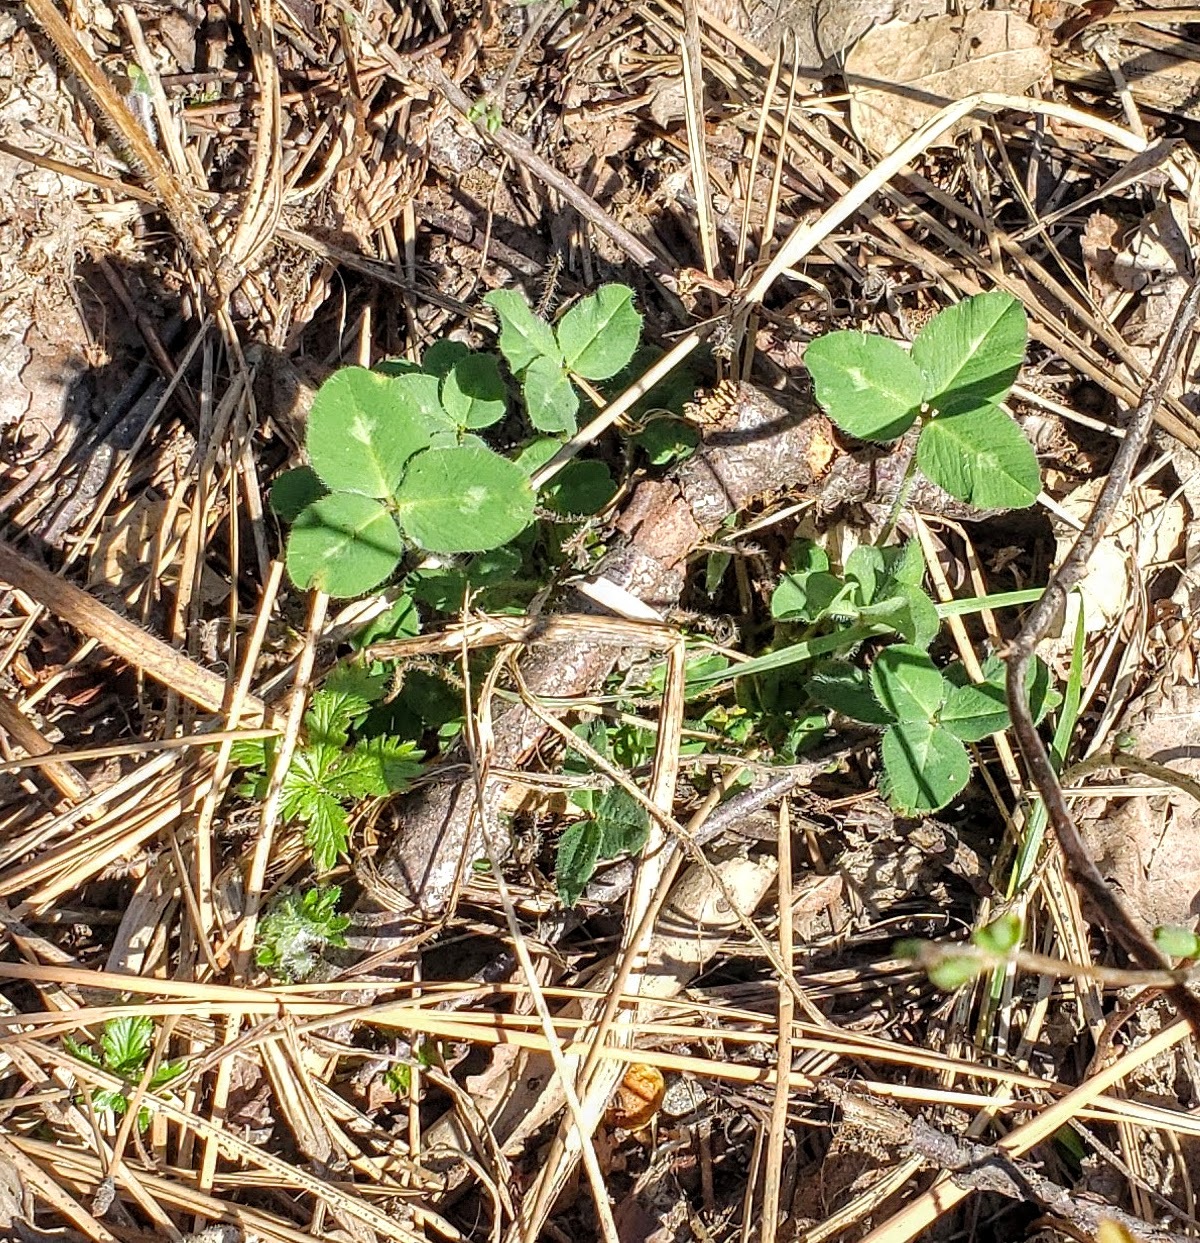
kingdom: Plantae
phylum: Tracheophyta
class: Magnoliopsida
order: Fabales
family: Fabaceae
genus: Trifolium
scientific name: Trifolium pratense
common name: Red clover
